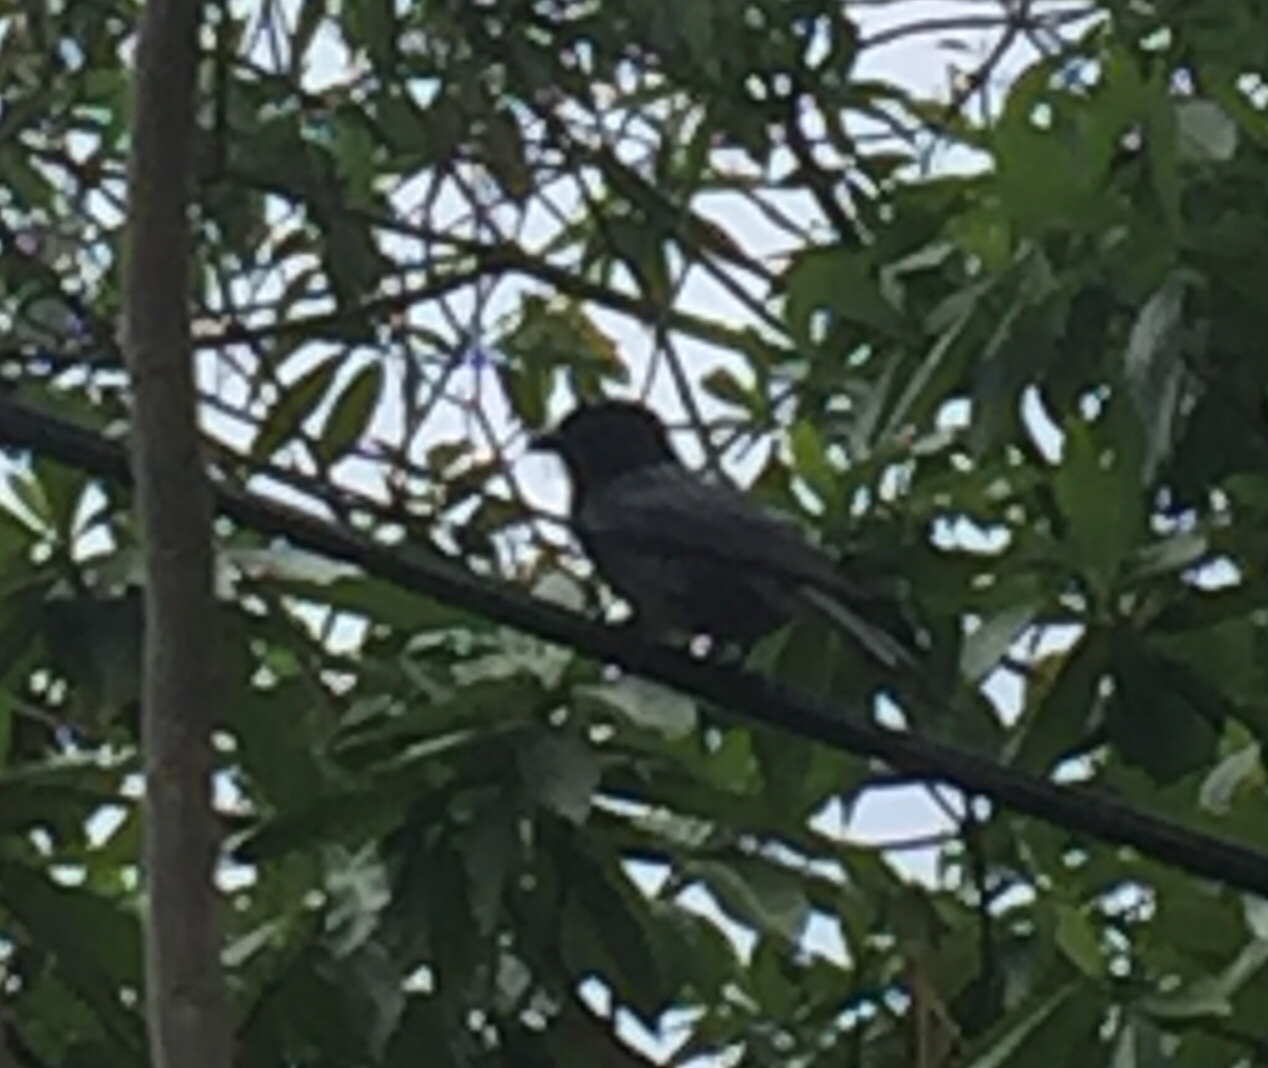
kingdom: Animalia
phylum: Chordata
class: Aves
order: Passeriformes
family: Pycnonotidae
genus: Pycnonotus
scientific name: Pycnonotus cafer
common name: Red-vented bulbul
